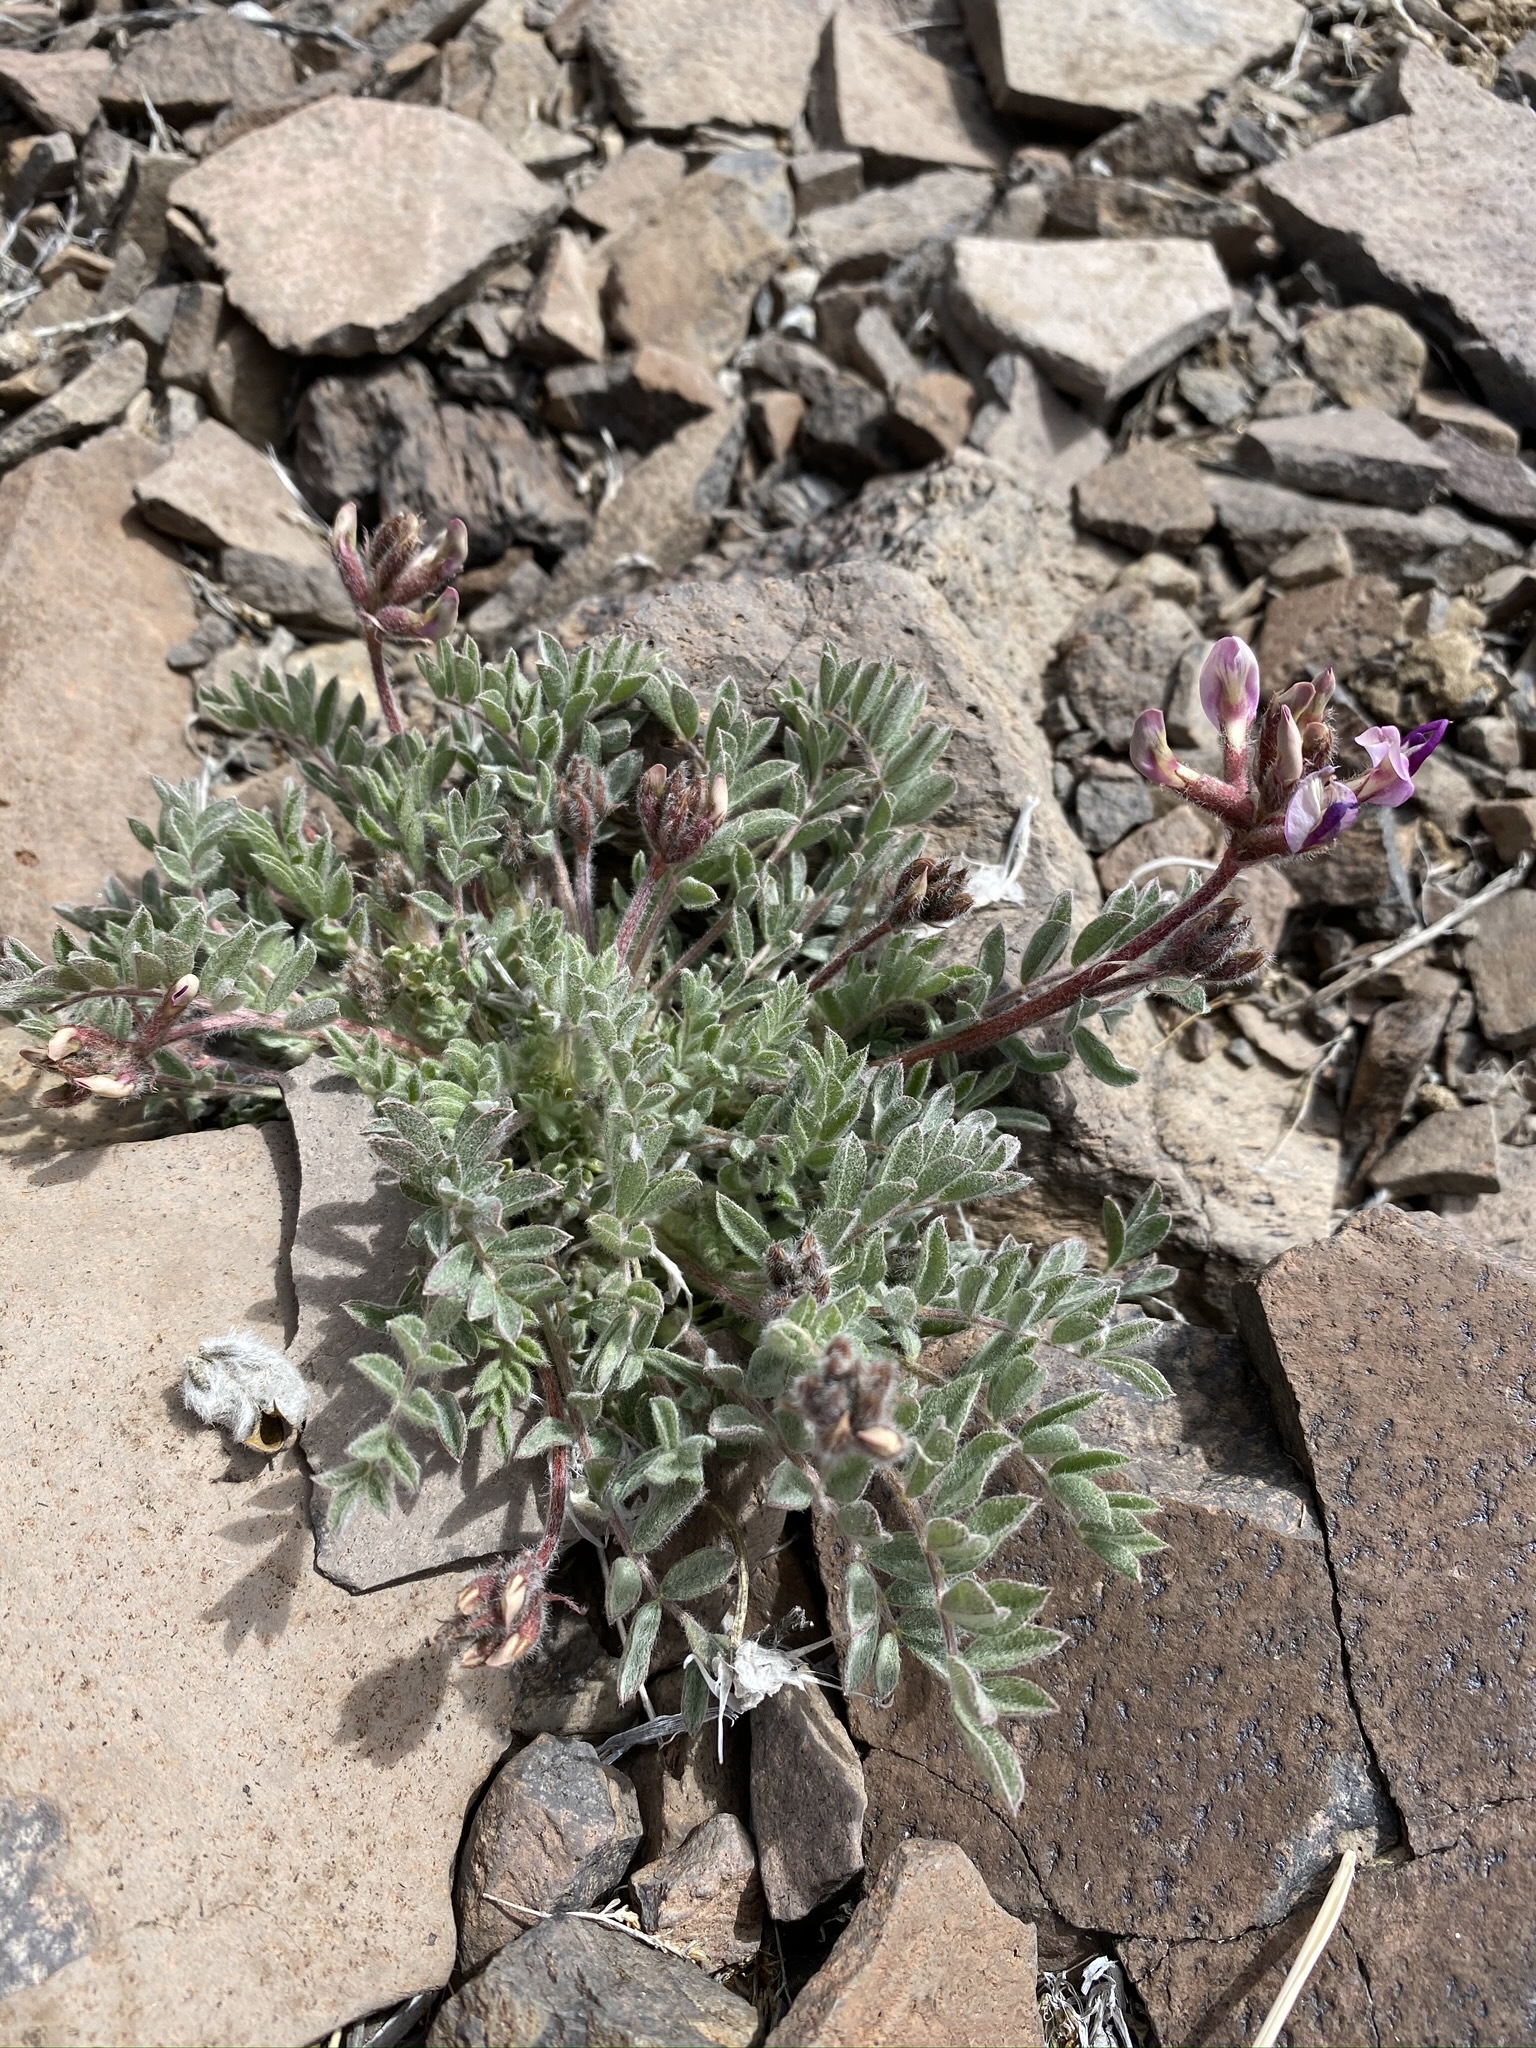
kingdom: Plantae
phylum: Tracheophyta
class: Magnoliopsida
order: Fabales
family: Fabaceae
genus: Astragalus
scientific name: Astragalus purshii
